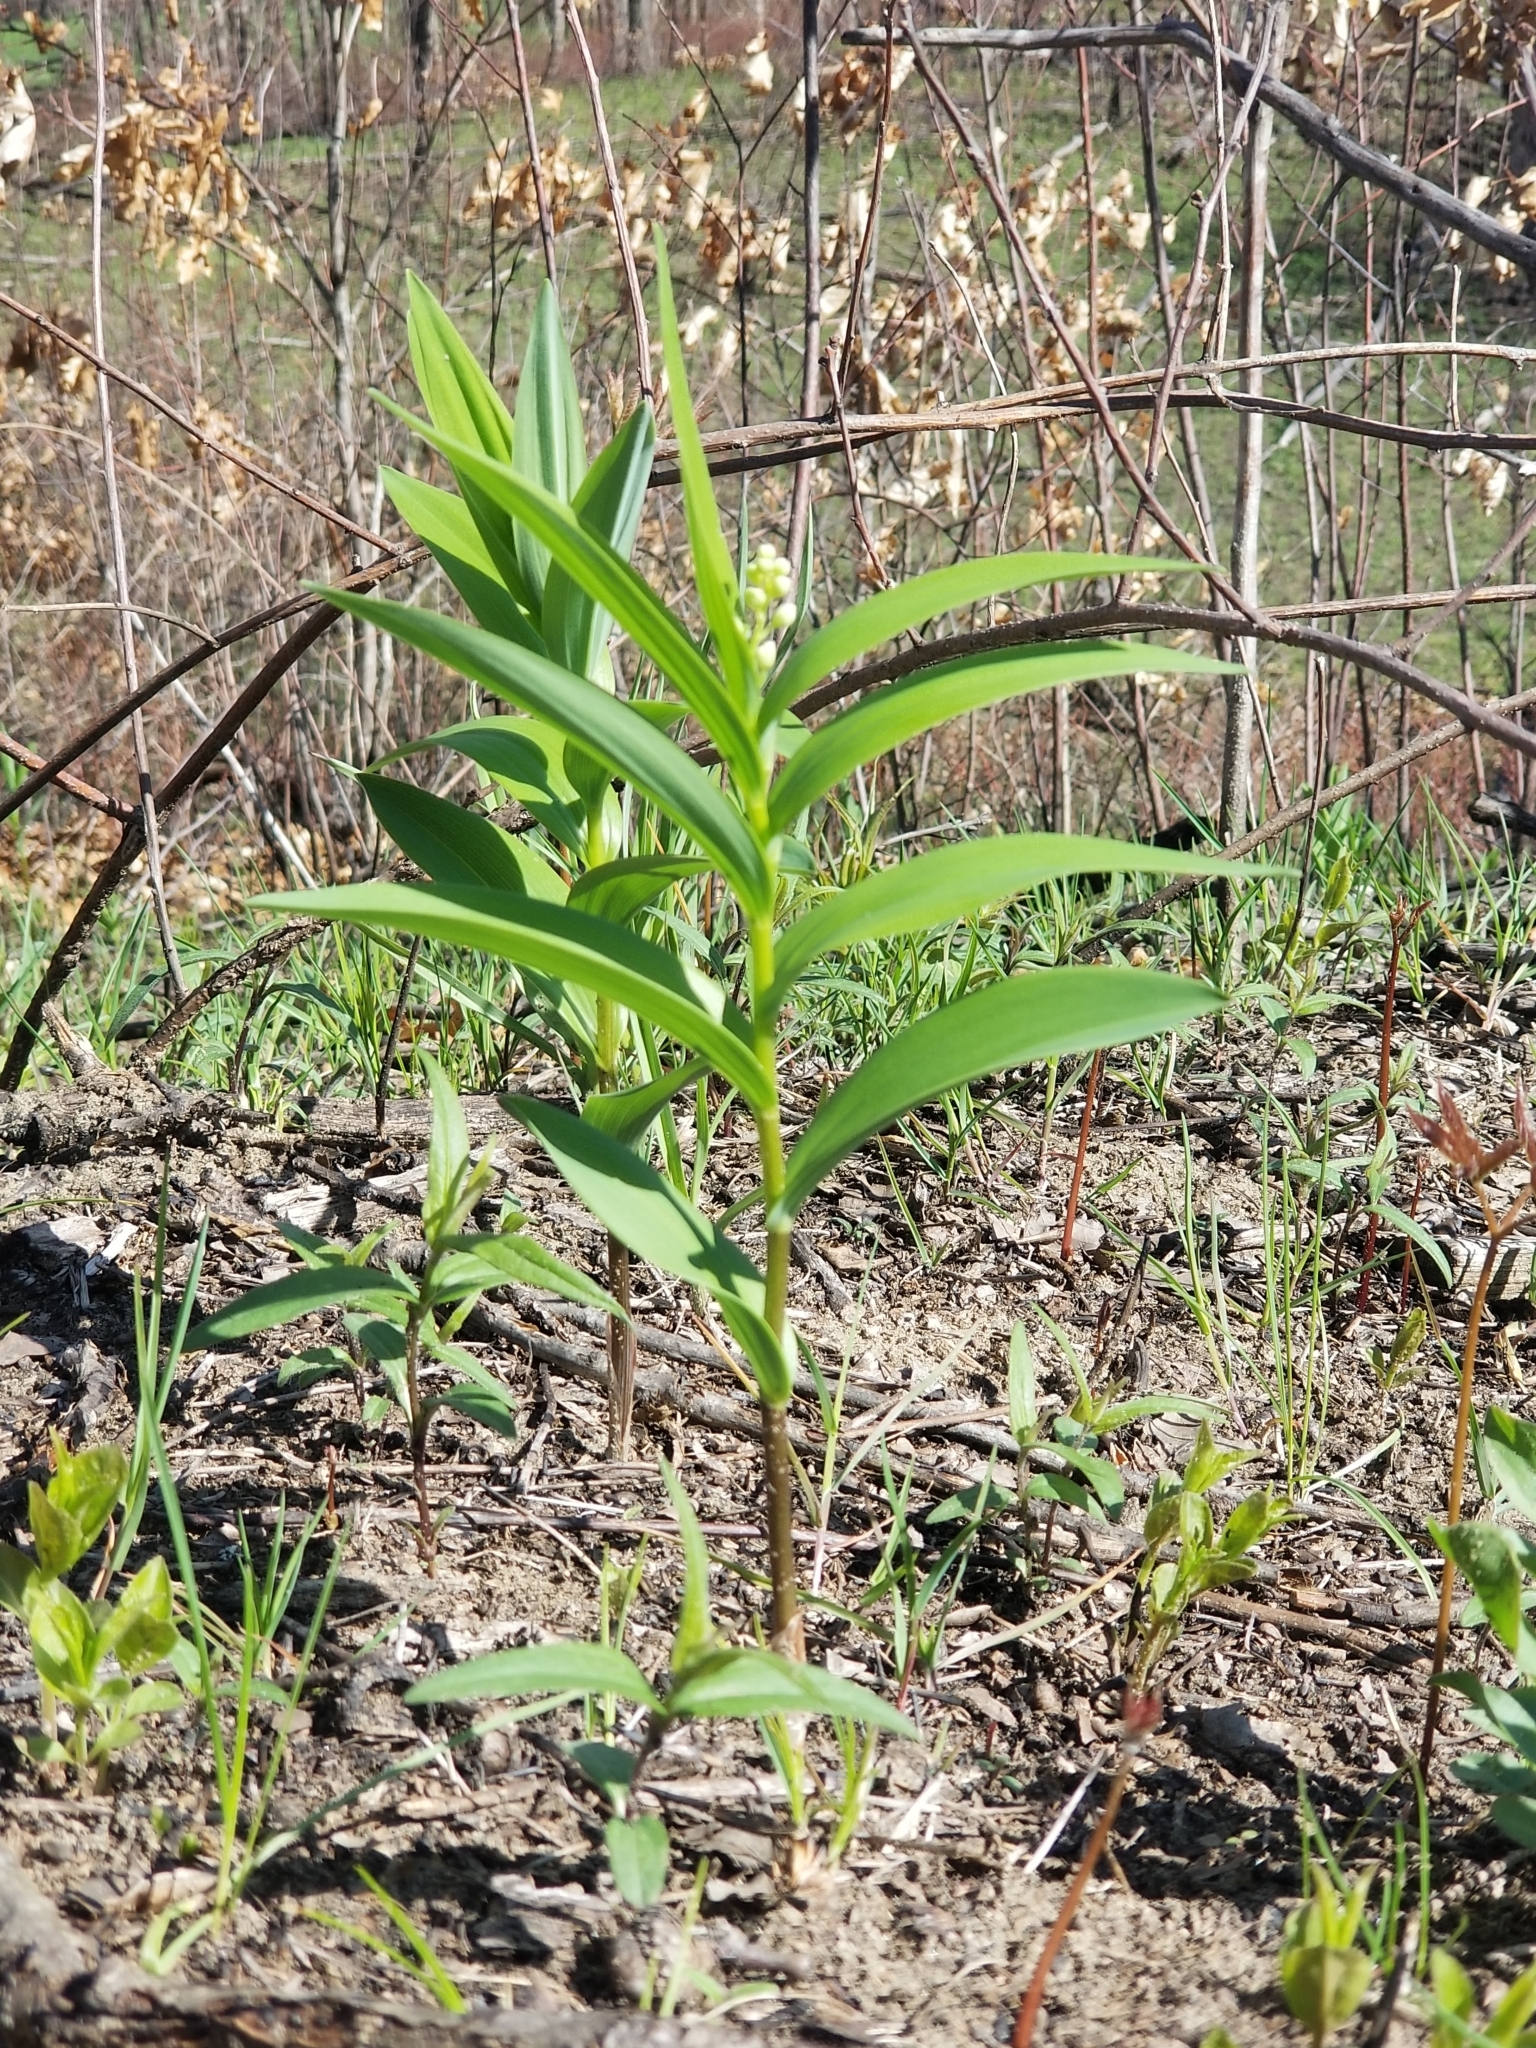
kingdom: Plantae
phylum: Tracheophyta
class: Liliopsida
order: Asparagales
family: Asparagaceae
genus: Maianthemum
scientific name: Maianthemum stellatum
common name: Little false solomon's seal
